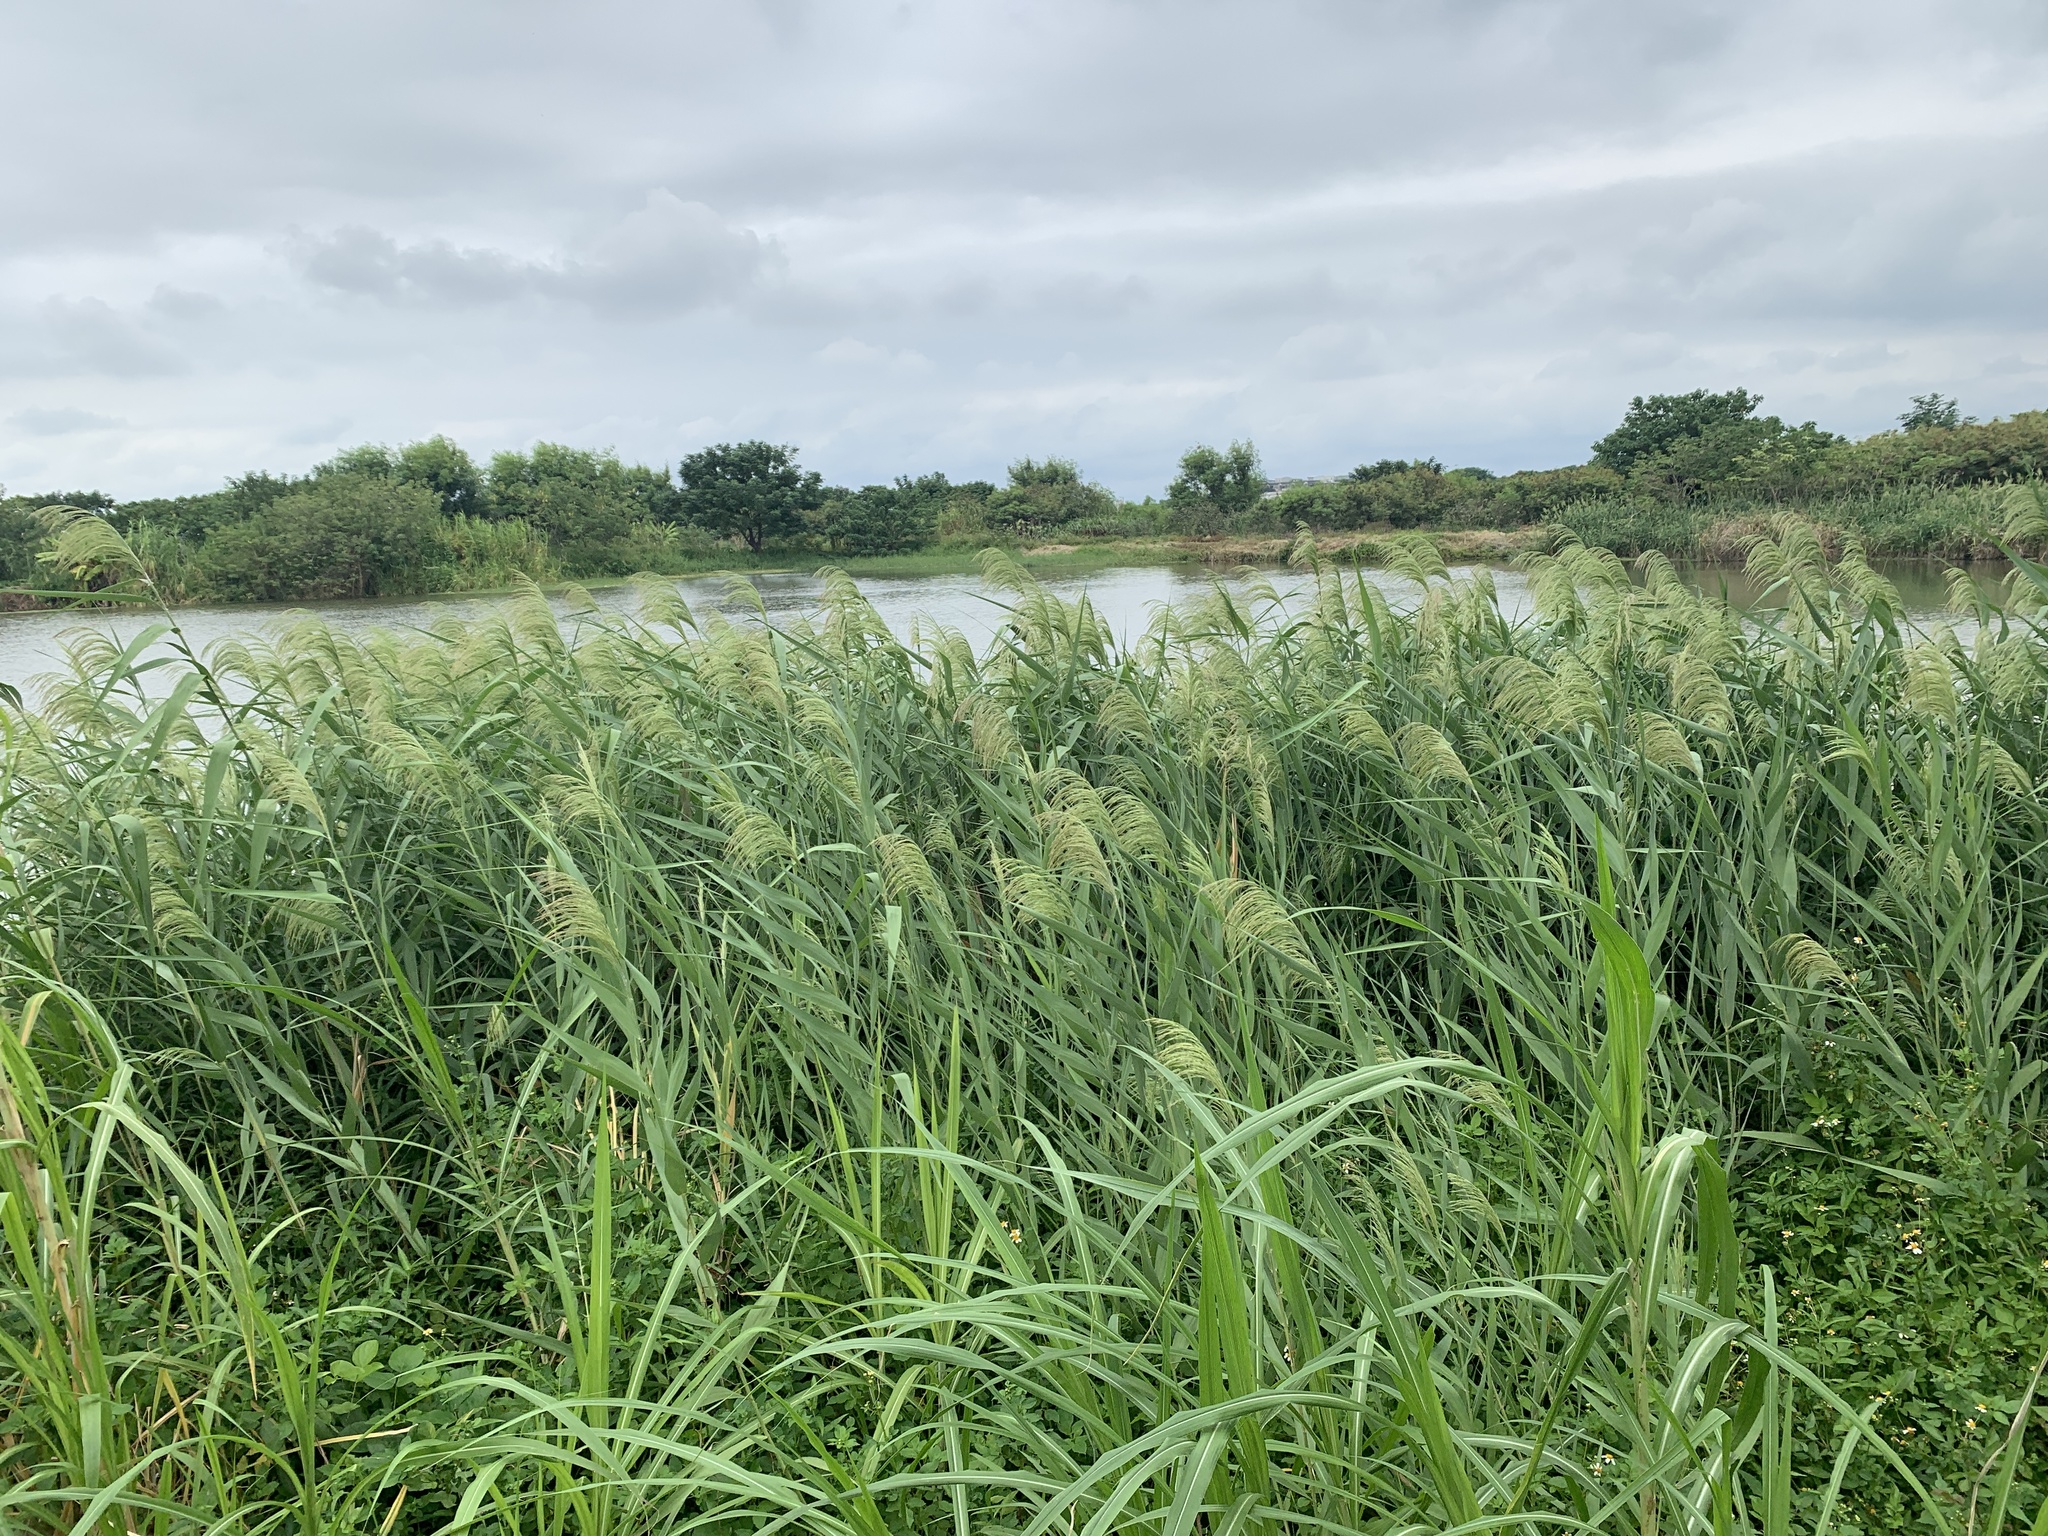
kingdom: Plantae
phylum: Tracheophyta
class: Liliopsida
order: Poales
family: Poaceae
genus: Phragmites
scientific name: Phragmites australis
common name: Common reed
